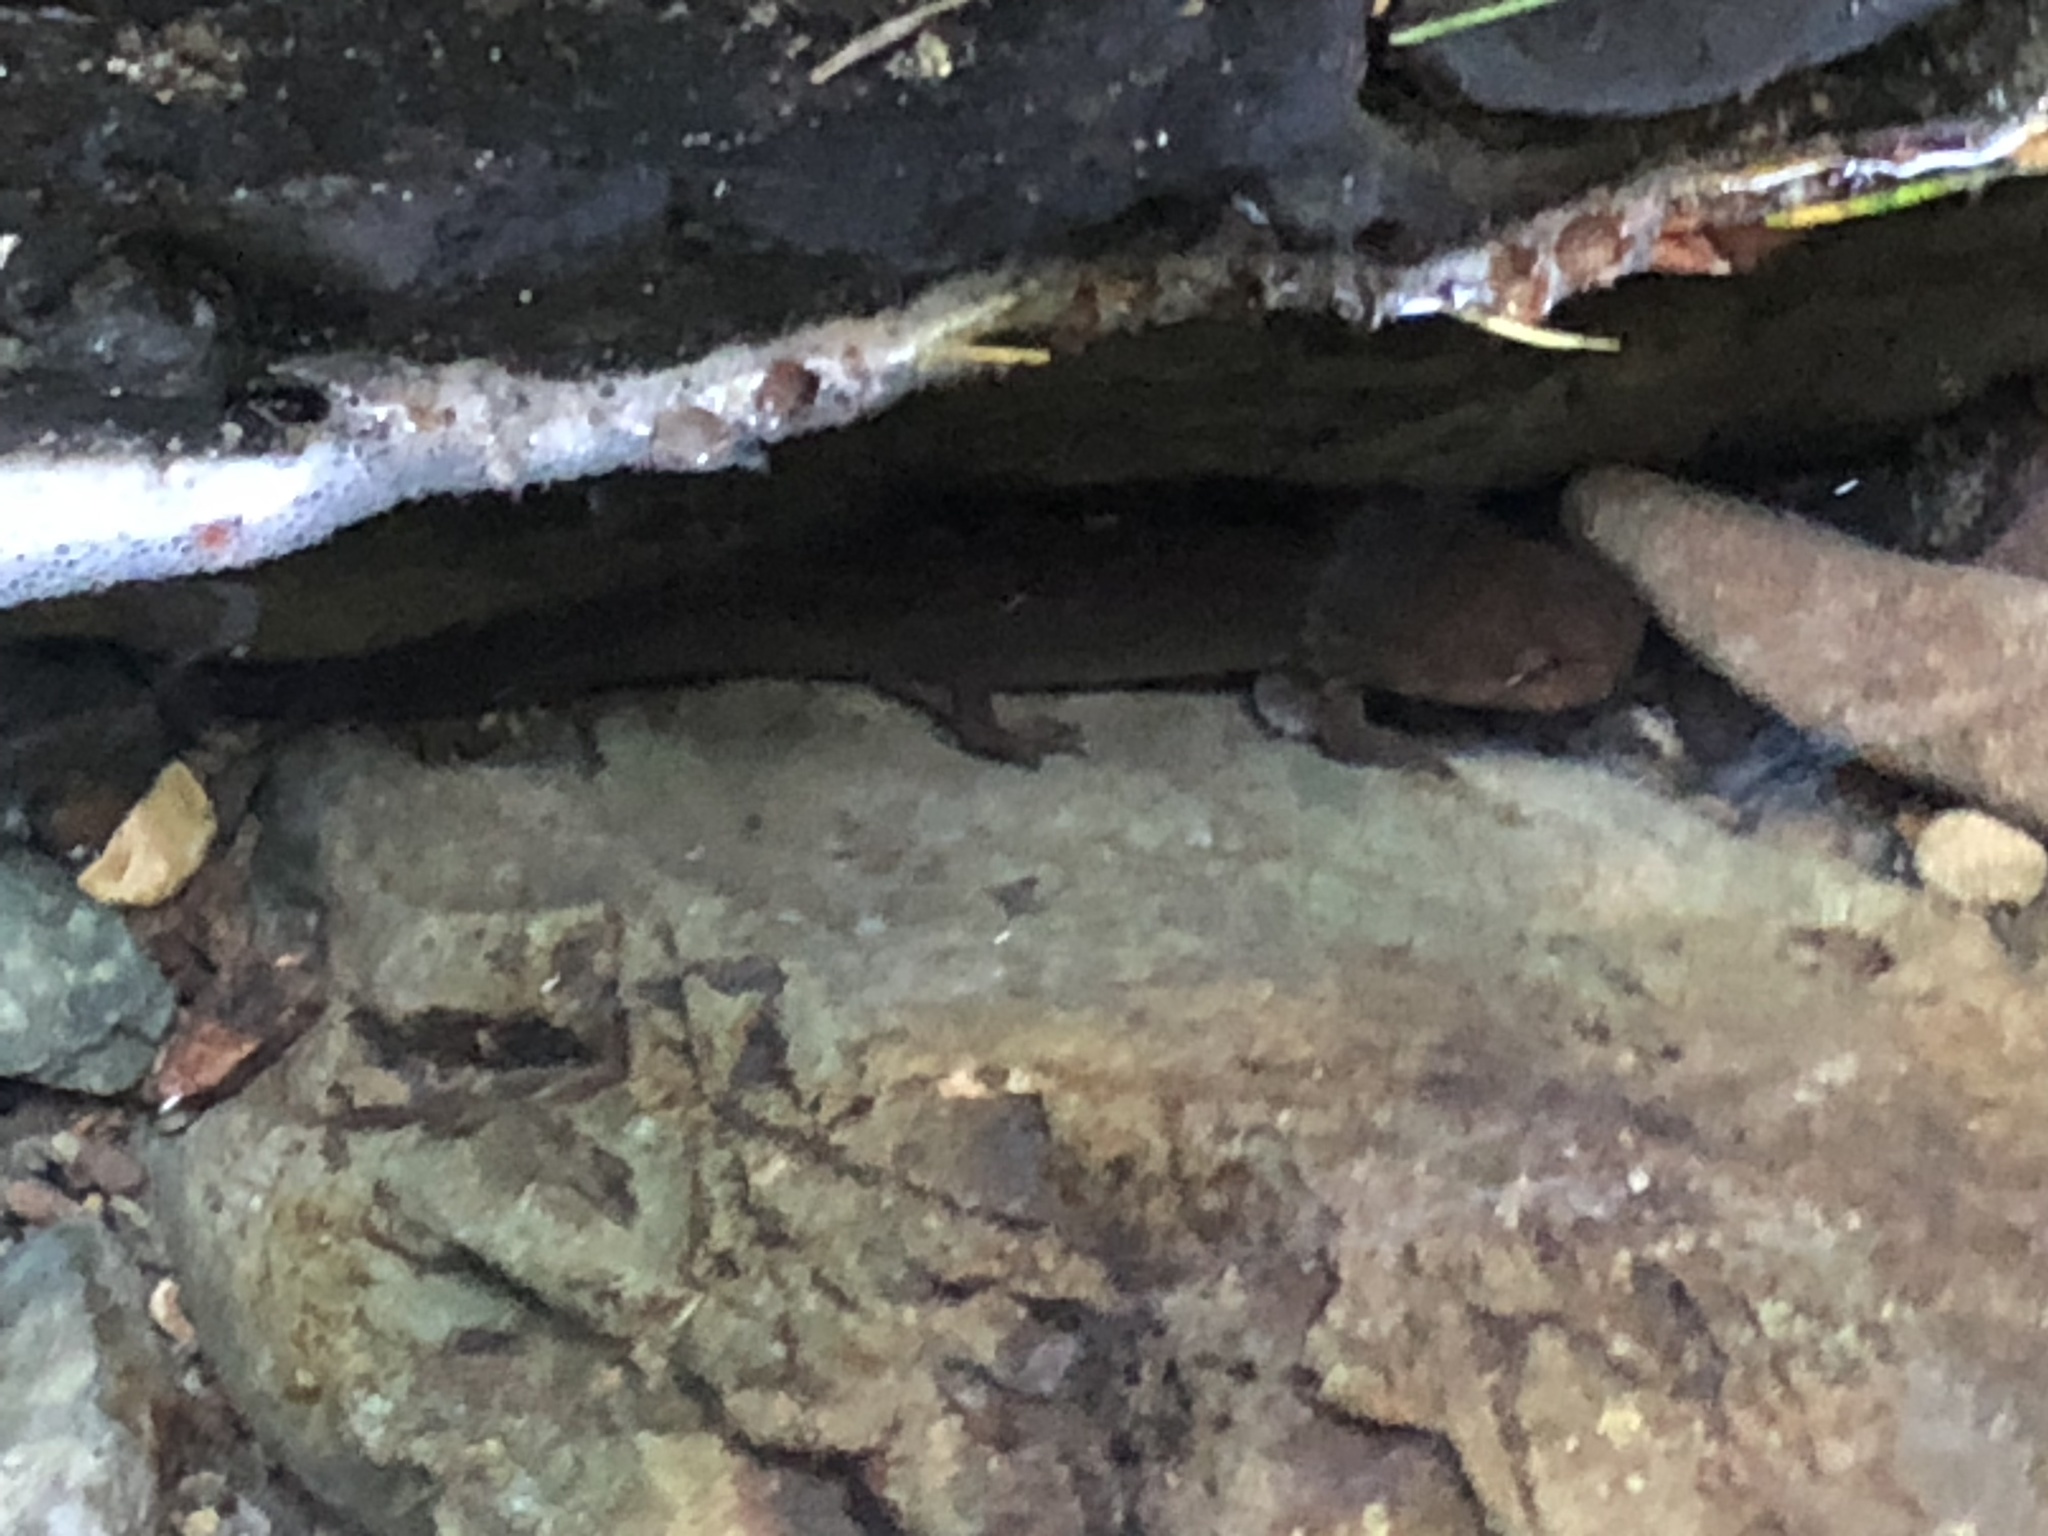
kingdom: Animalia
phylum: Chordata
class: Amphibia
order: Caudata
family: Ambystomatidae
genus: Dicamptodon
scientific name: Dicamptodon ensatus
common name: California giant salamander
